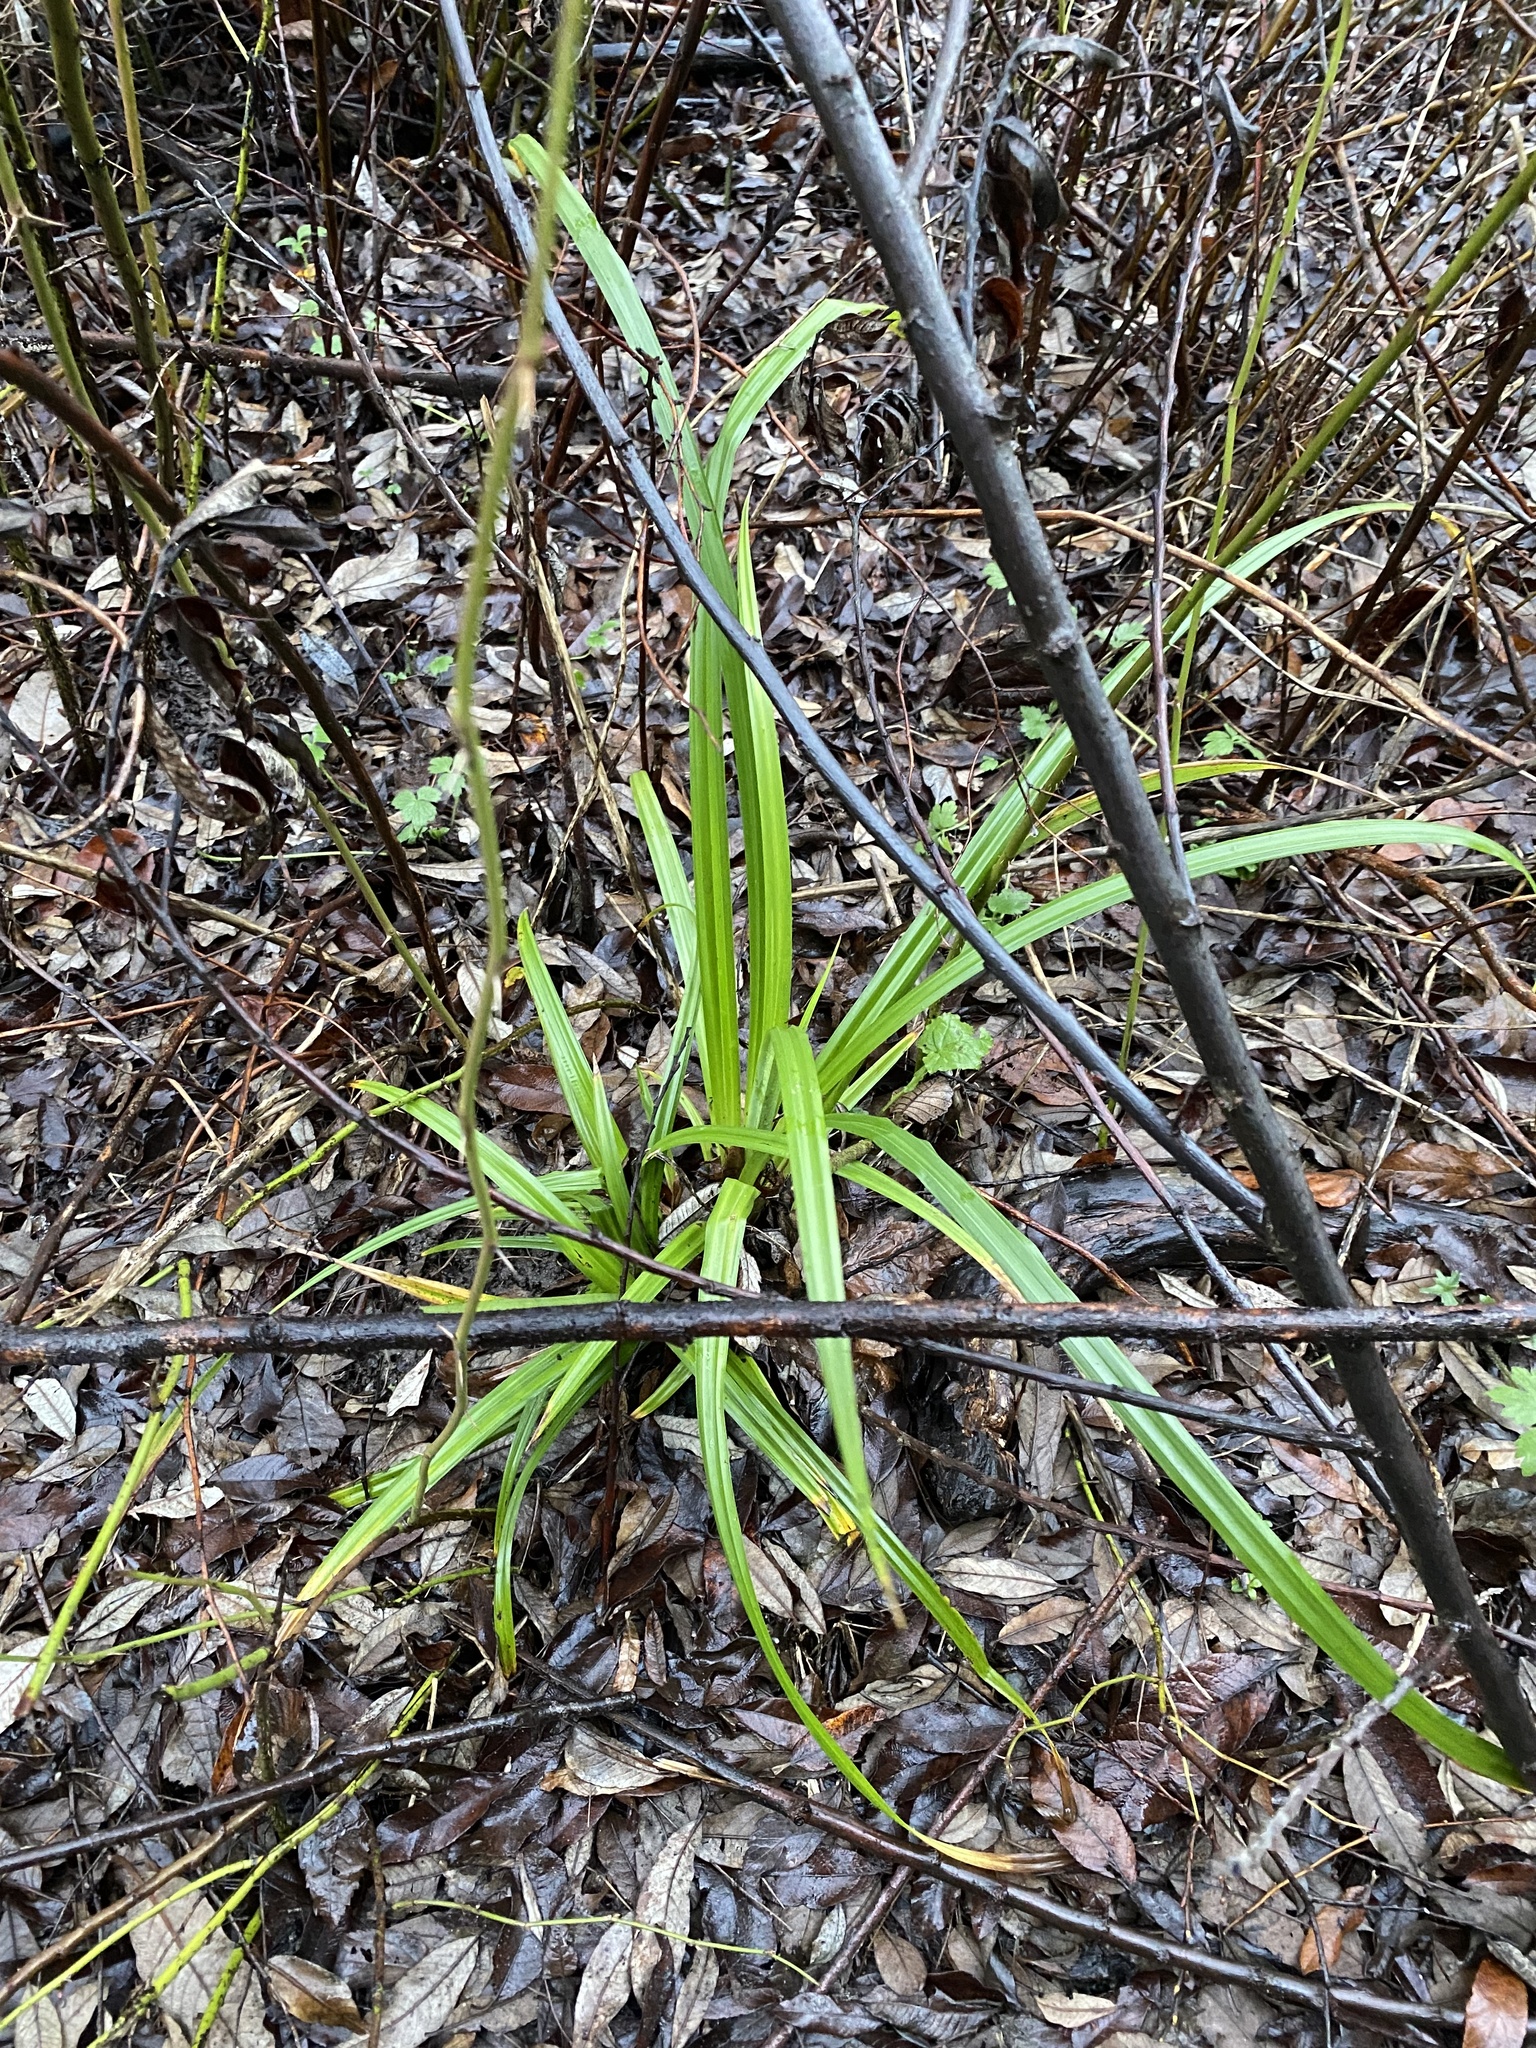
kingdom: Plantae
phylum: Tracheophyta
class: Liliopsida
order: Poales
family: Cyperaceae
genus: Carex
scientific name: Carex pendula
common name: Pendulous sedge
